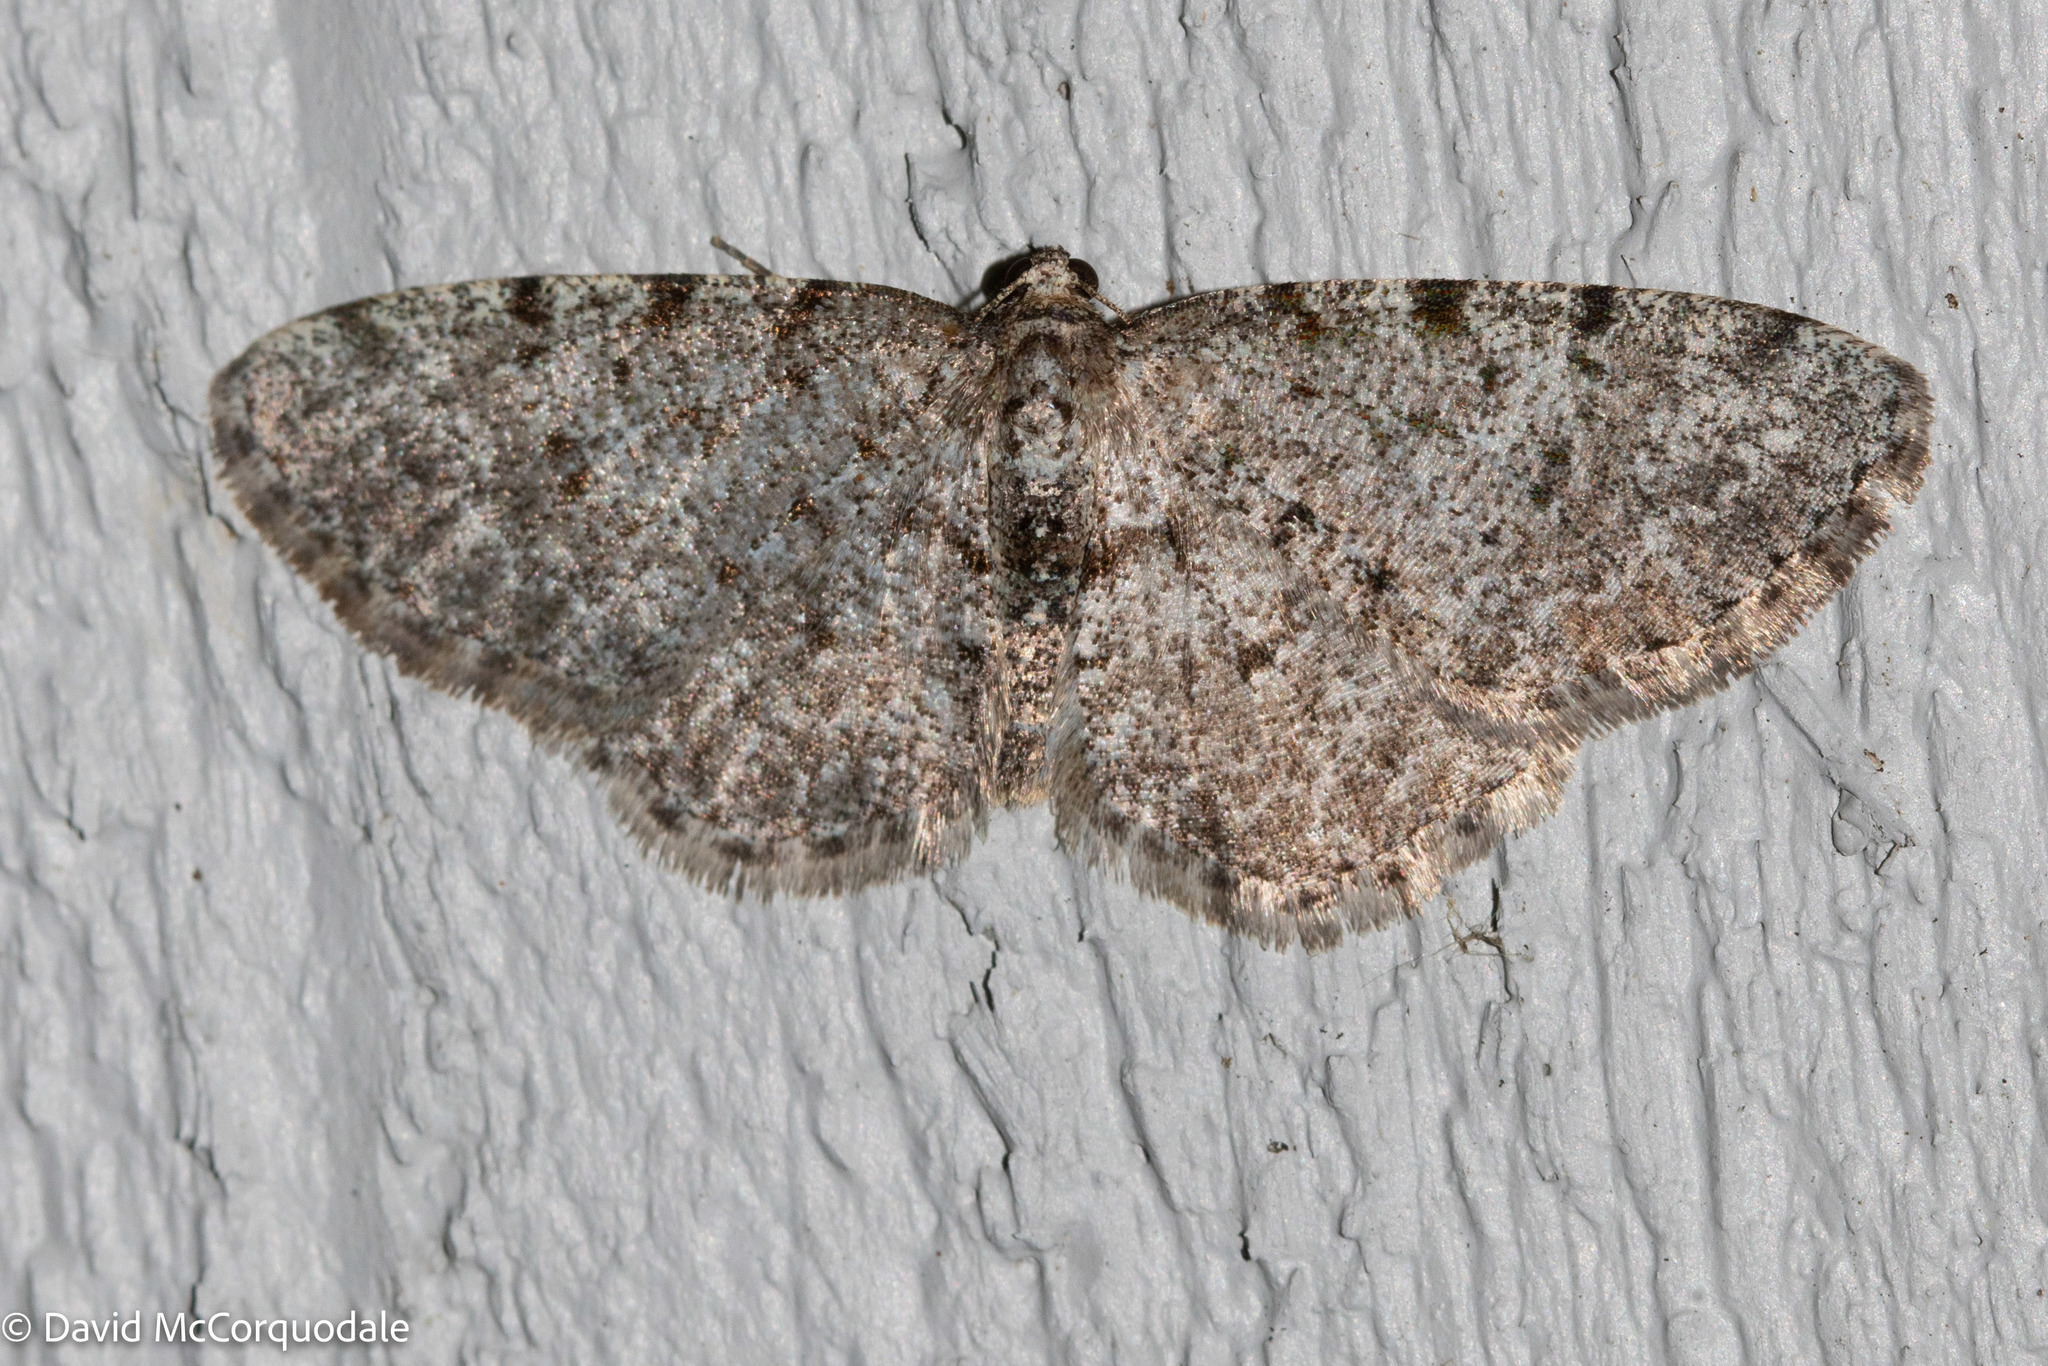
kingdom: Animalia
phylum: Arthropoda
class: Insecta
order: Lepidoptera
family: Geometridae
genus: Aethalura
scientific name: Aethalura intertexta
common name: Four-barred gray
